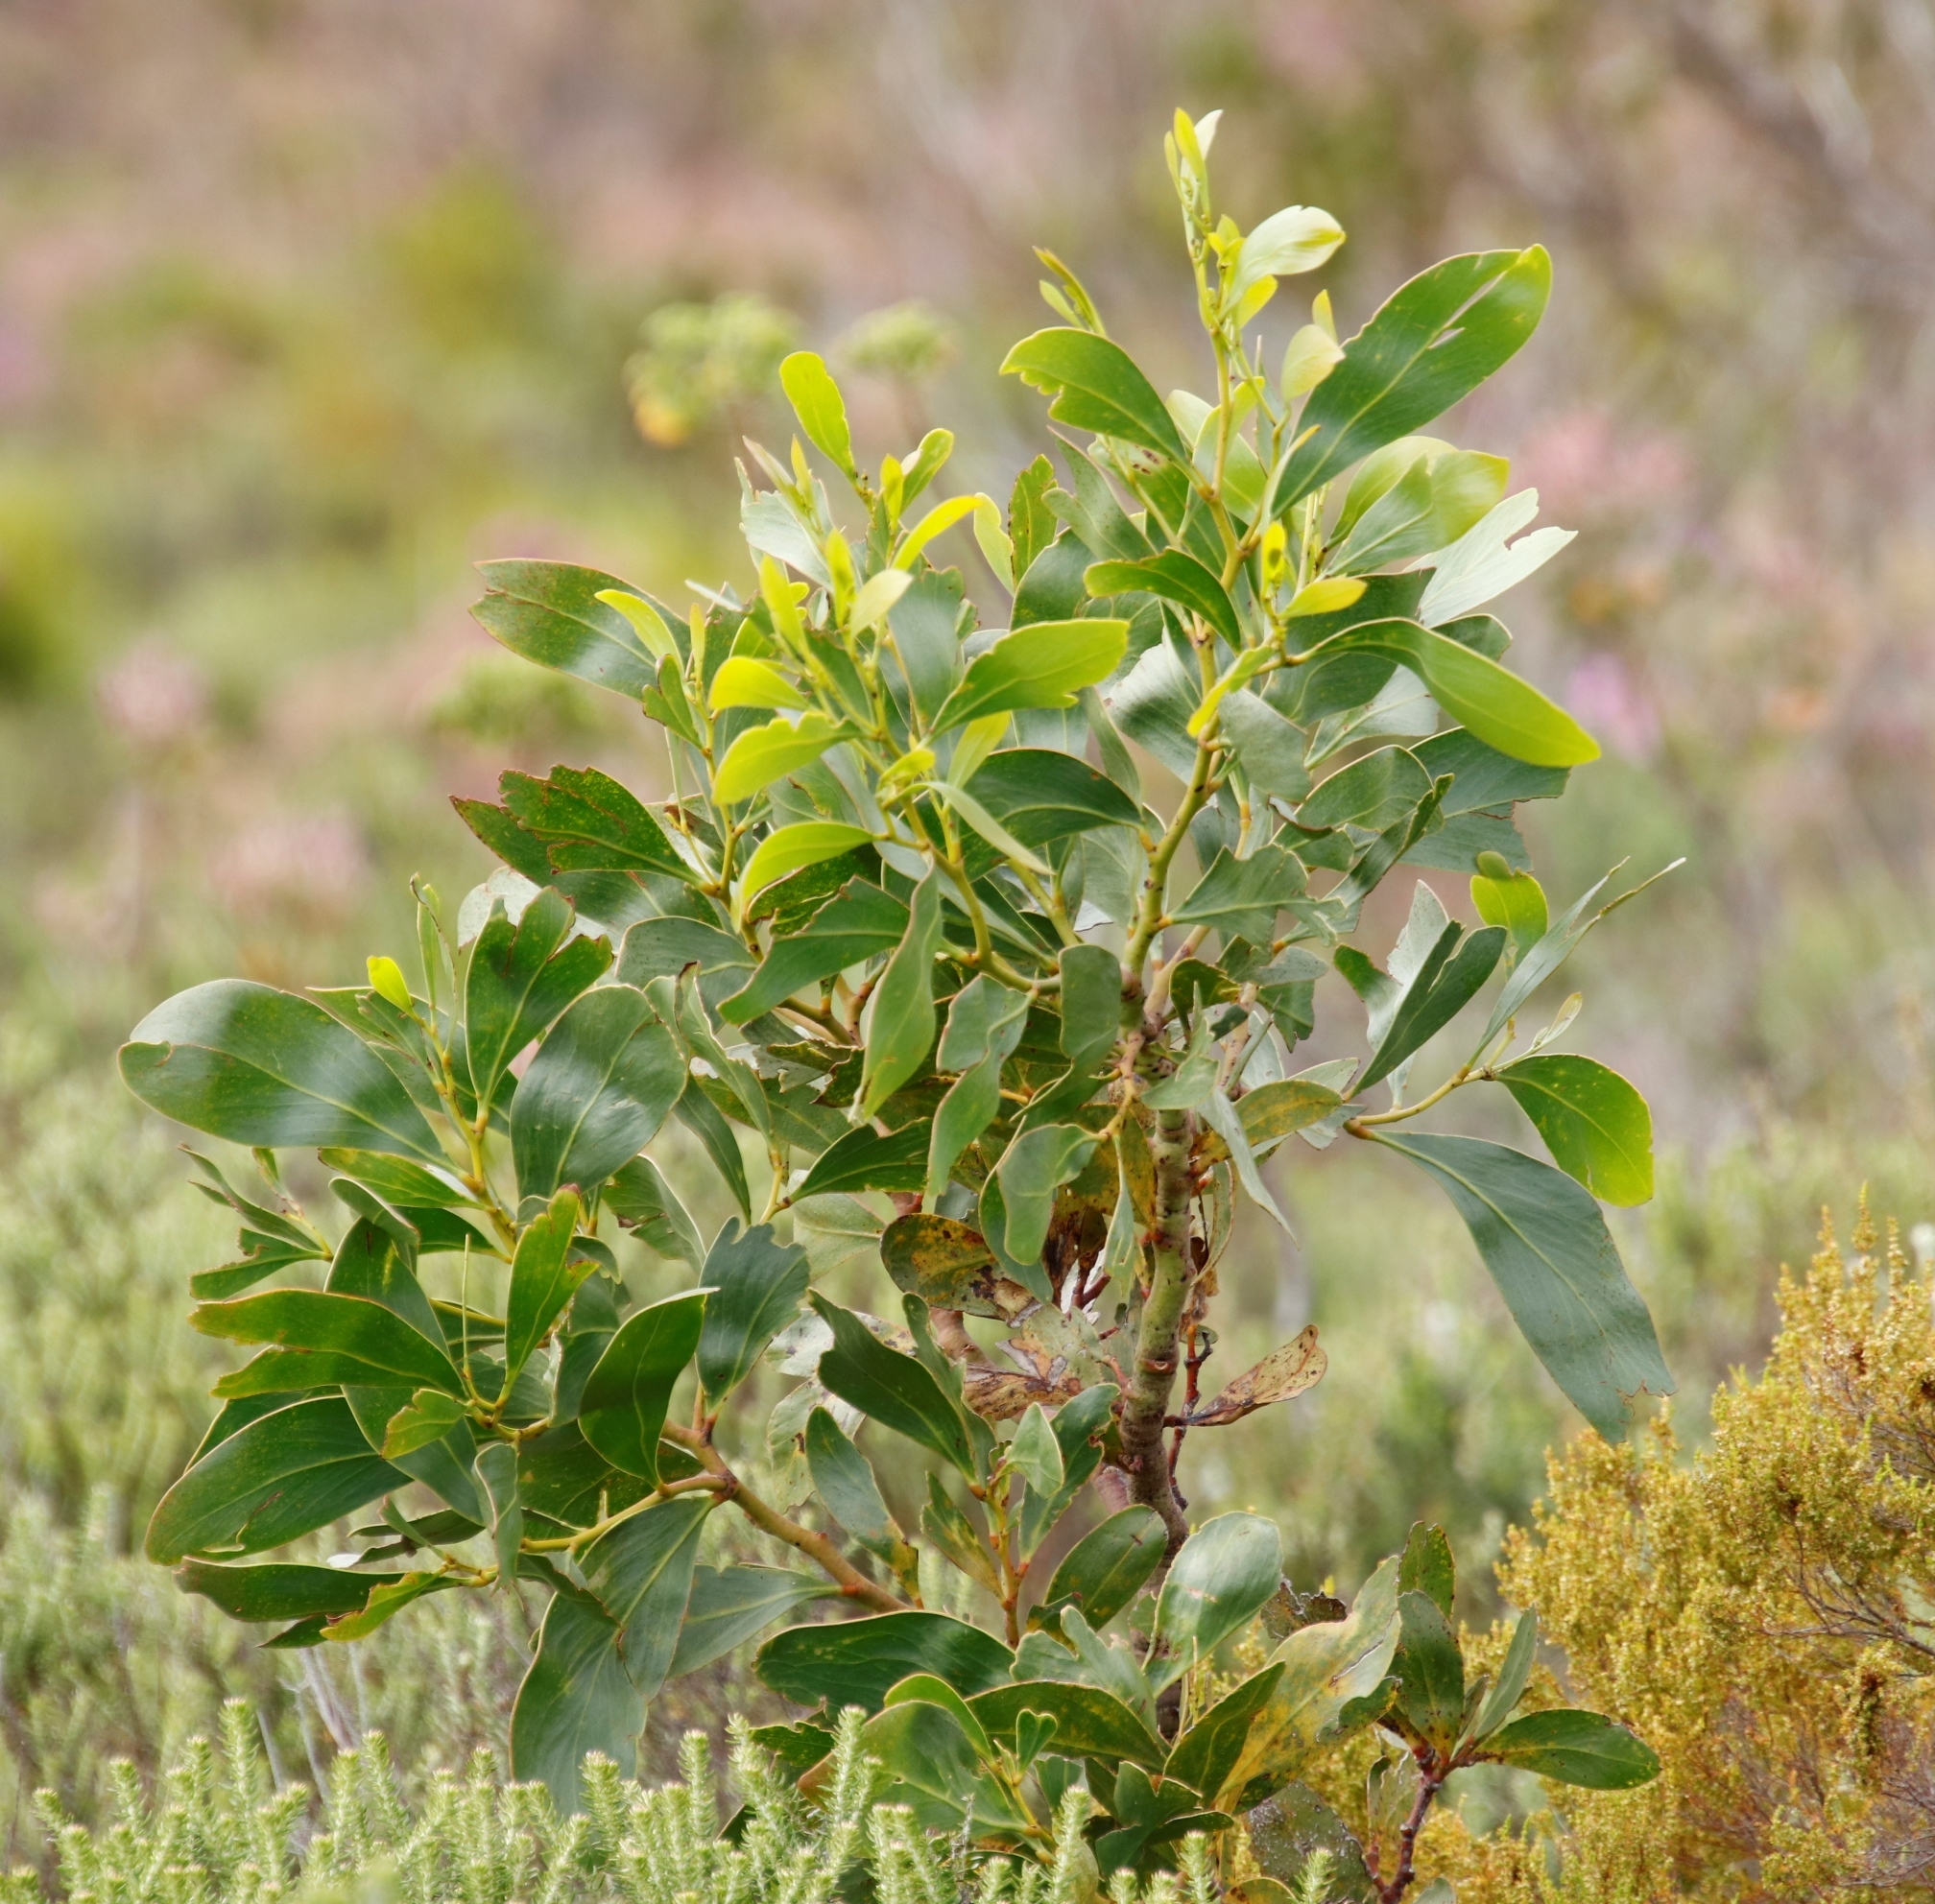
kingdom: Plantae
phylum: Tracheophyta
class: Magnoliopsida
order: Fabales
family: Fabaceae
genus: Acacia
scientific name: Acacia pycnantha
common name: Golden wattle
